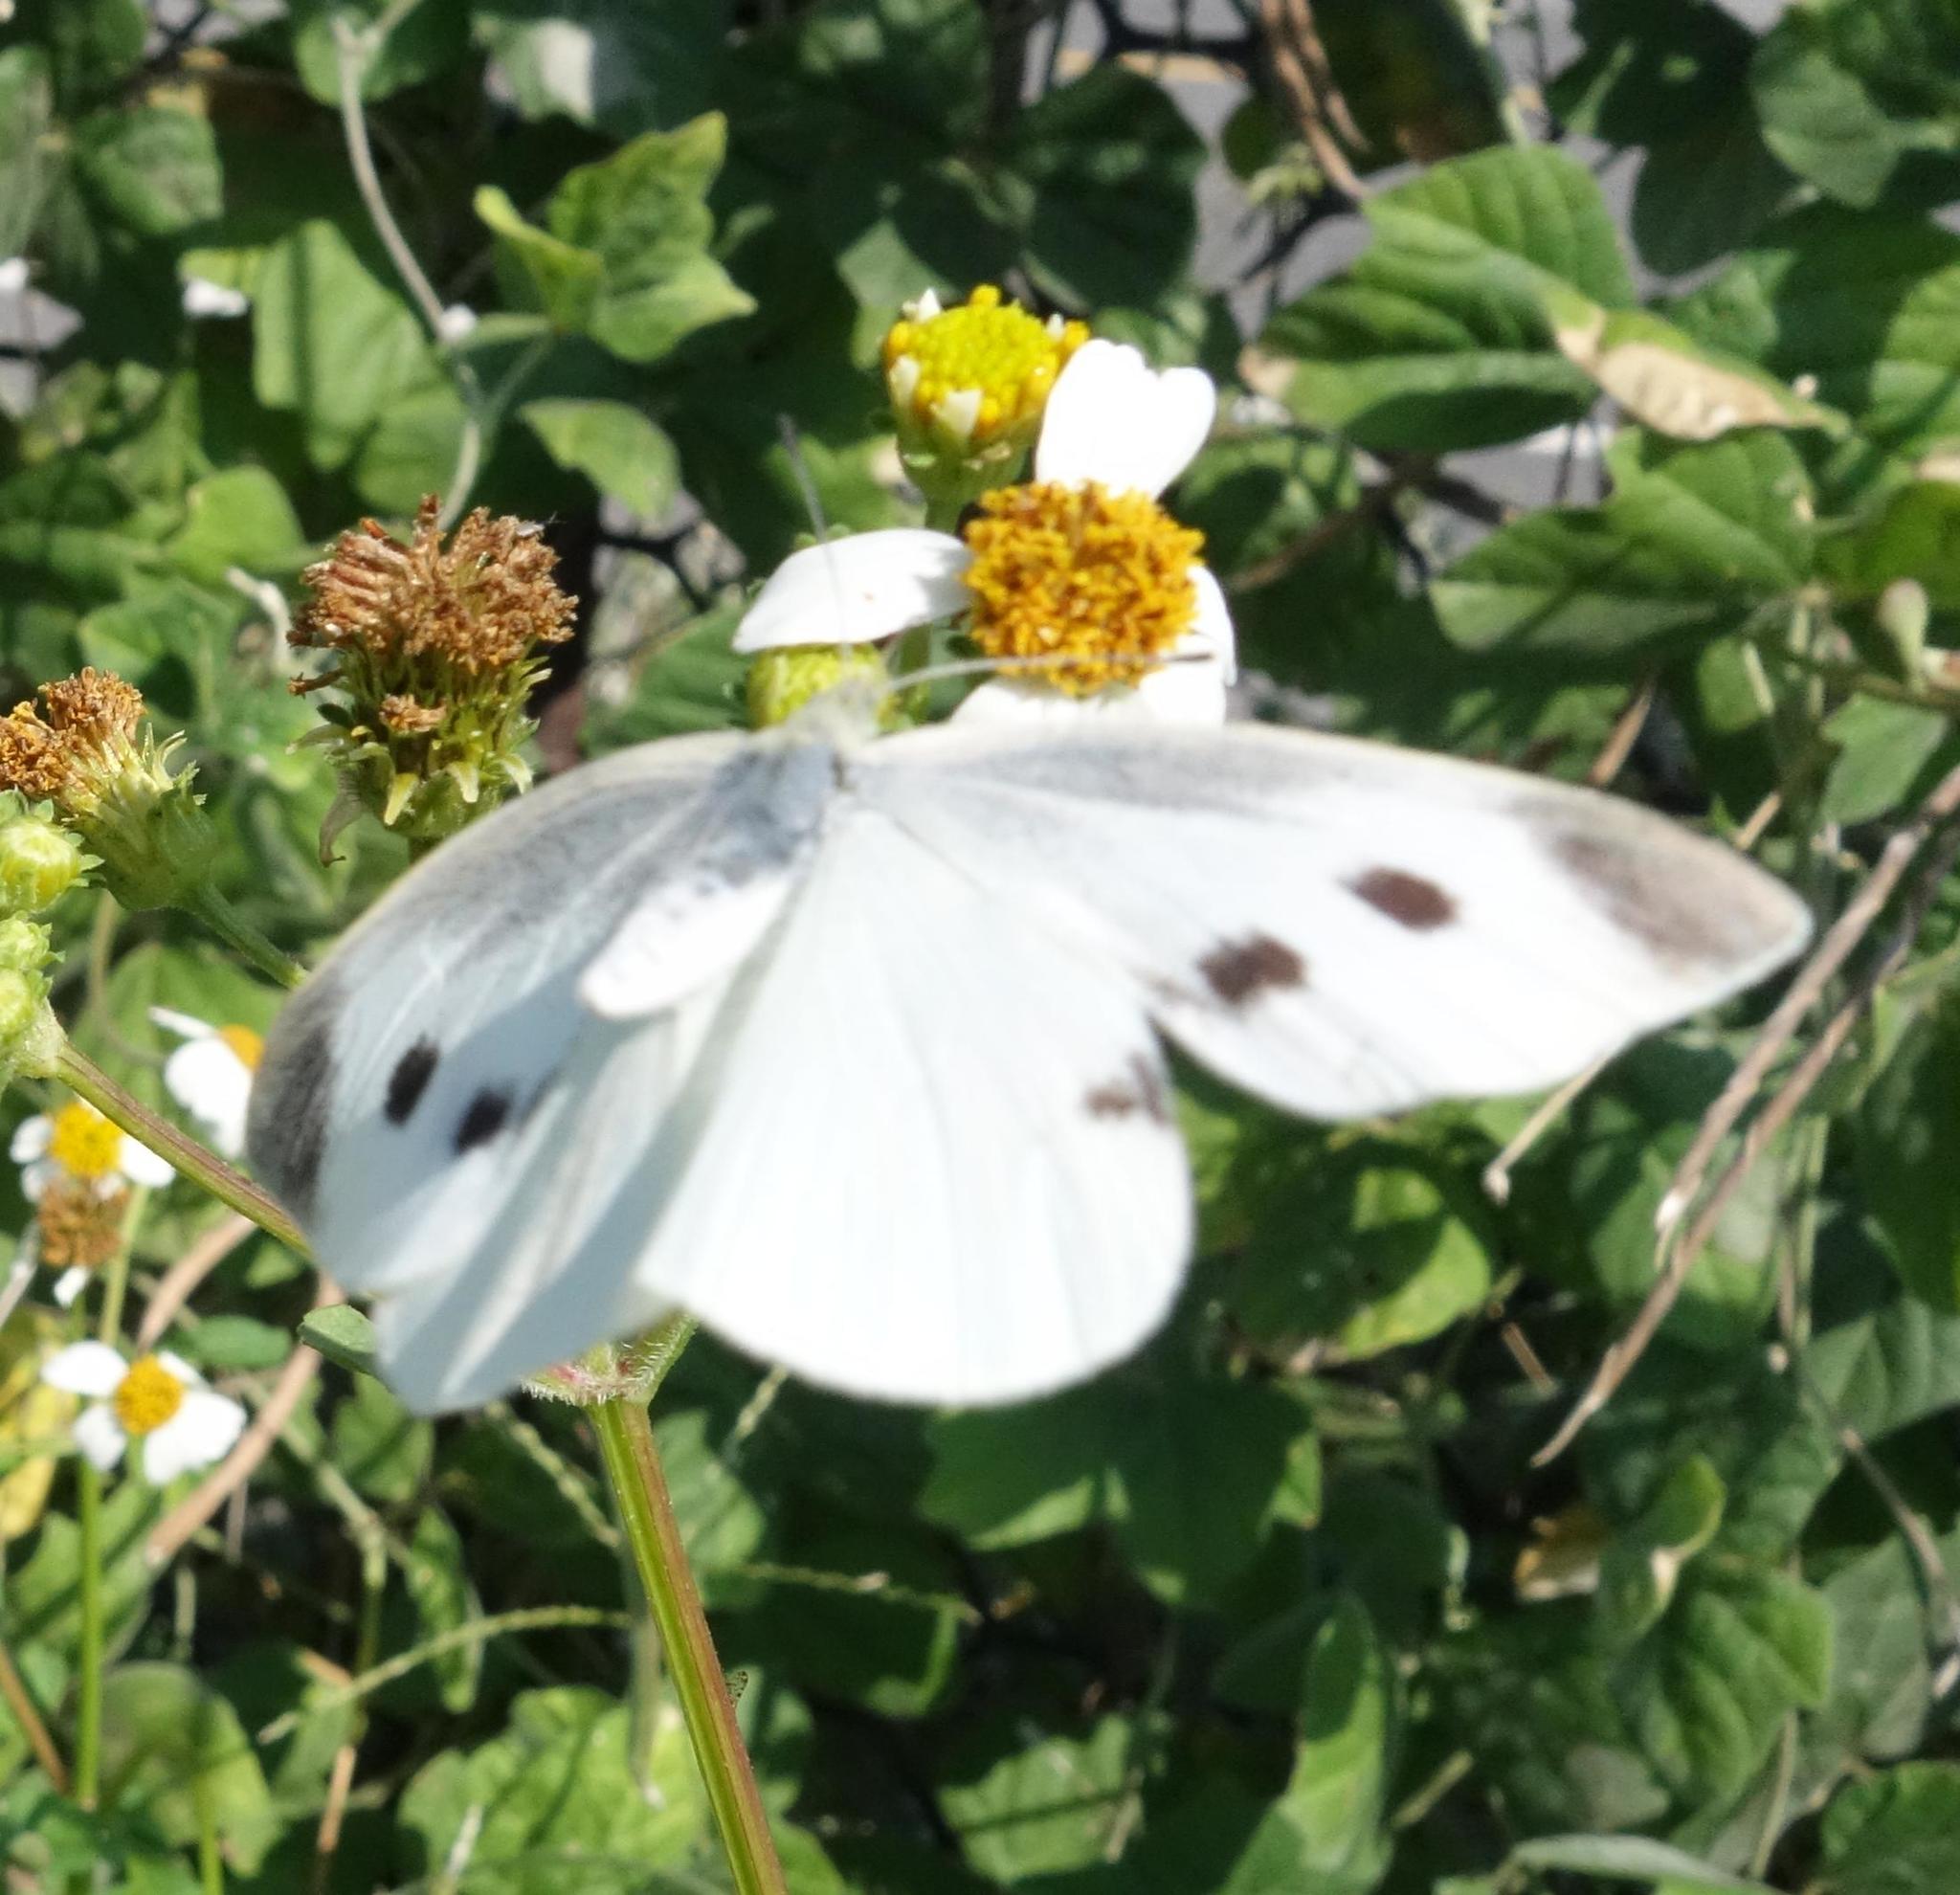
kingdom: Animalia
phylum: Arthropoda
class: Insecta
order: Lepidoptera
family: Pieridae
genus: Pieris
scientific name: Pieris rapae
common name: Small white
